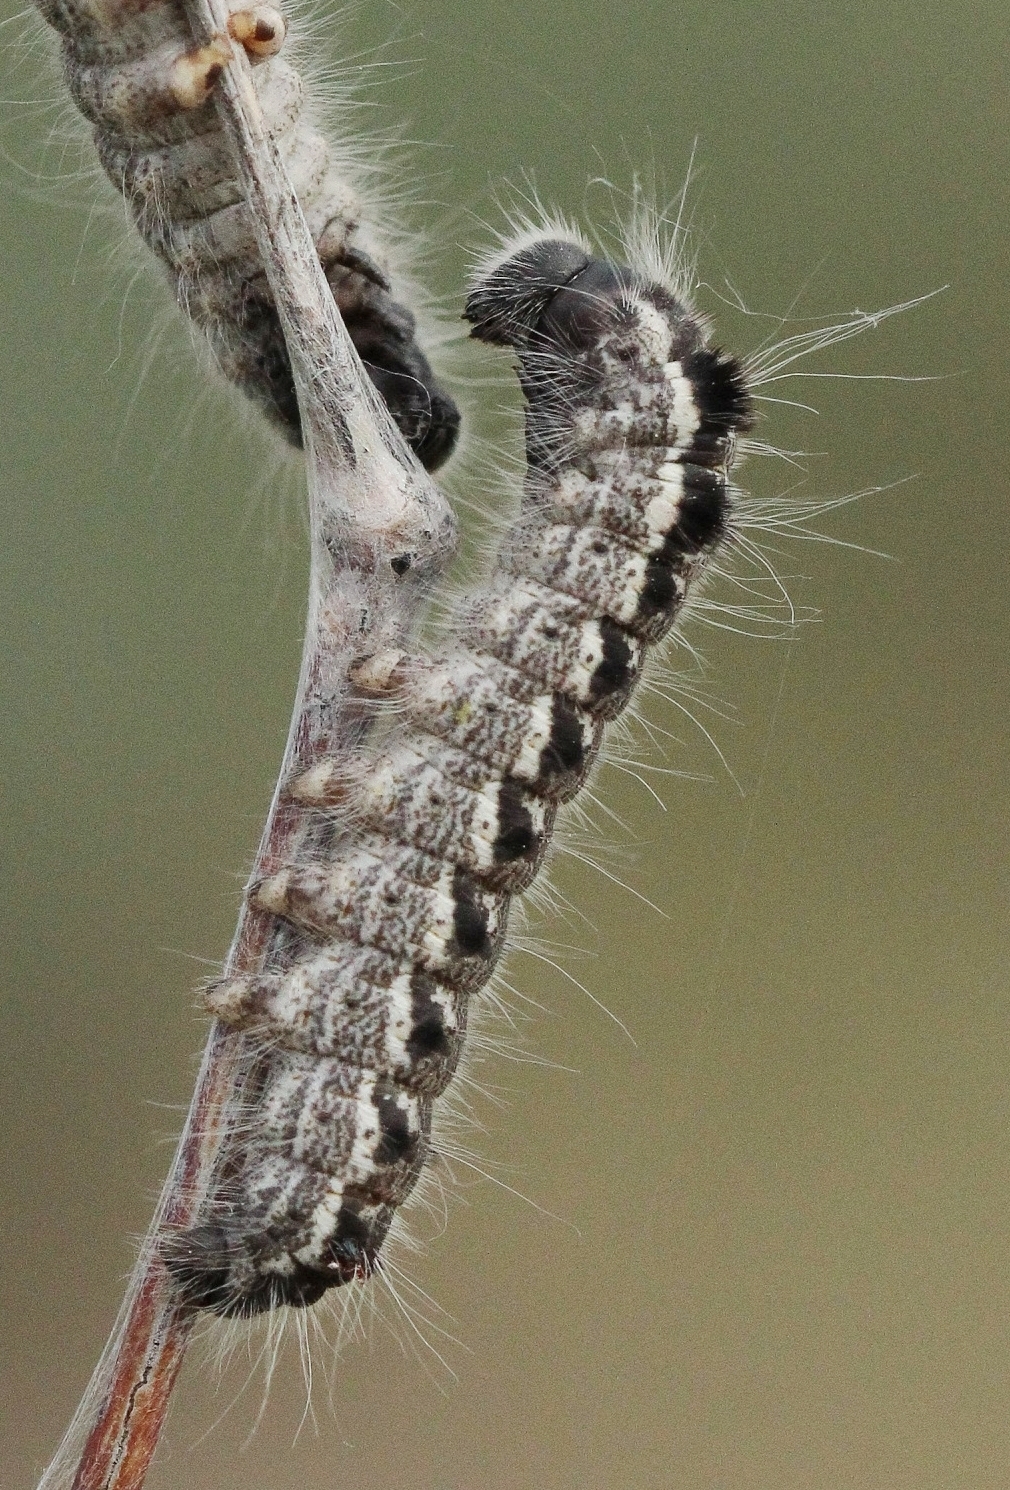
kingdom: Animalia
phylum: Arthropoda
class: Insecta
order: Lepidoptera
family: Lasiocampidae
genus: Eriogaster
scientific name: Eriogaster henkei
